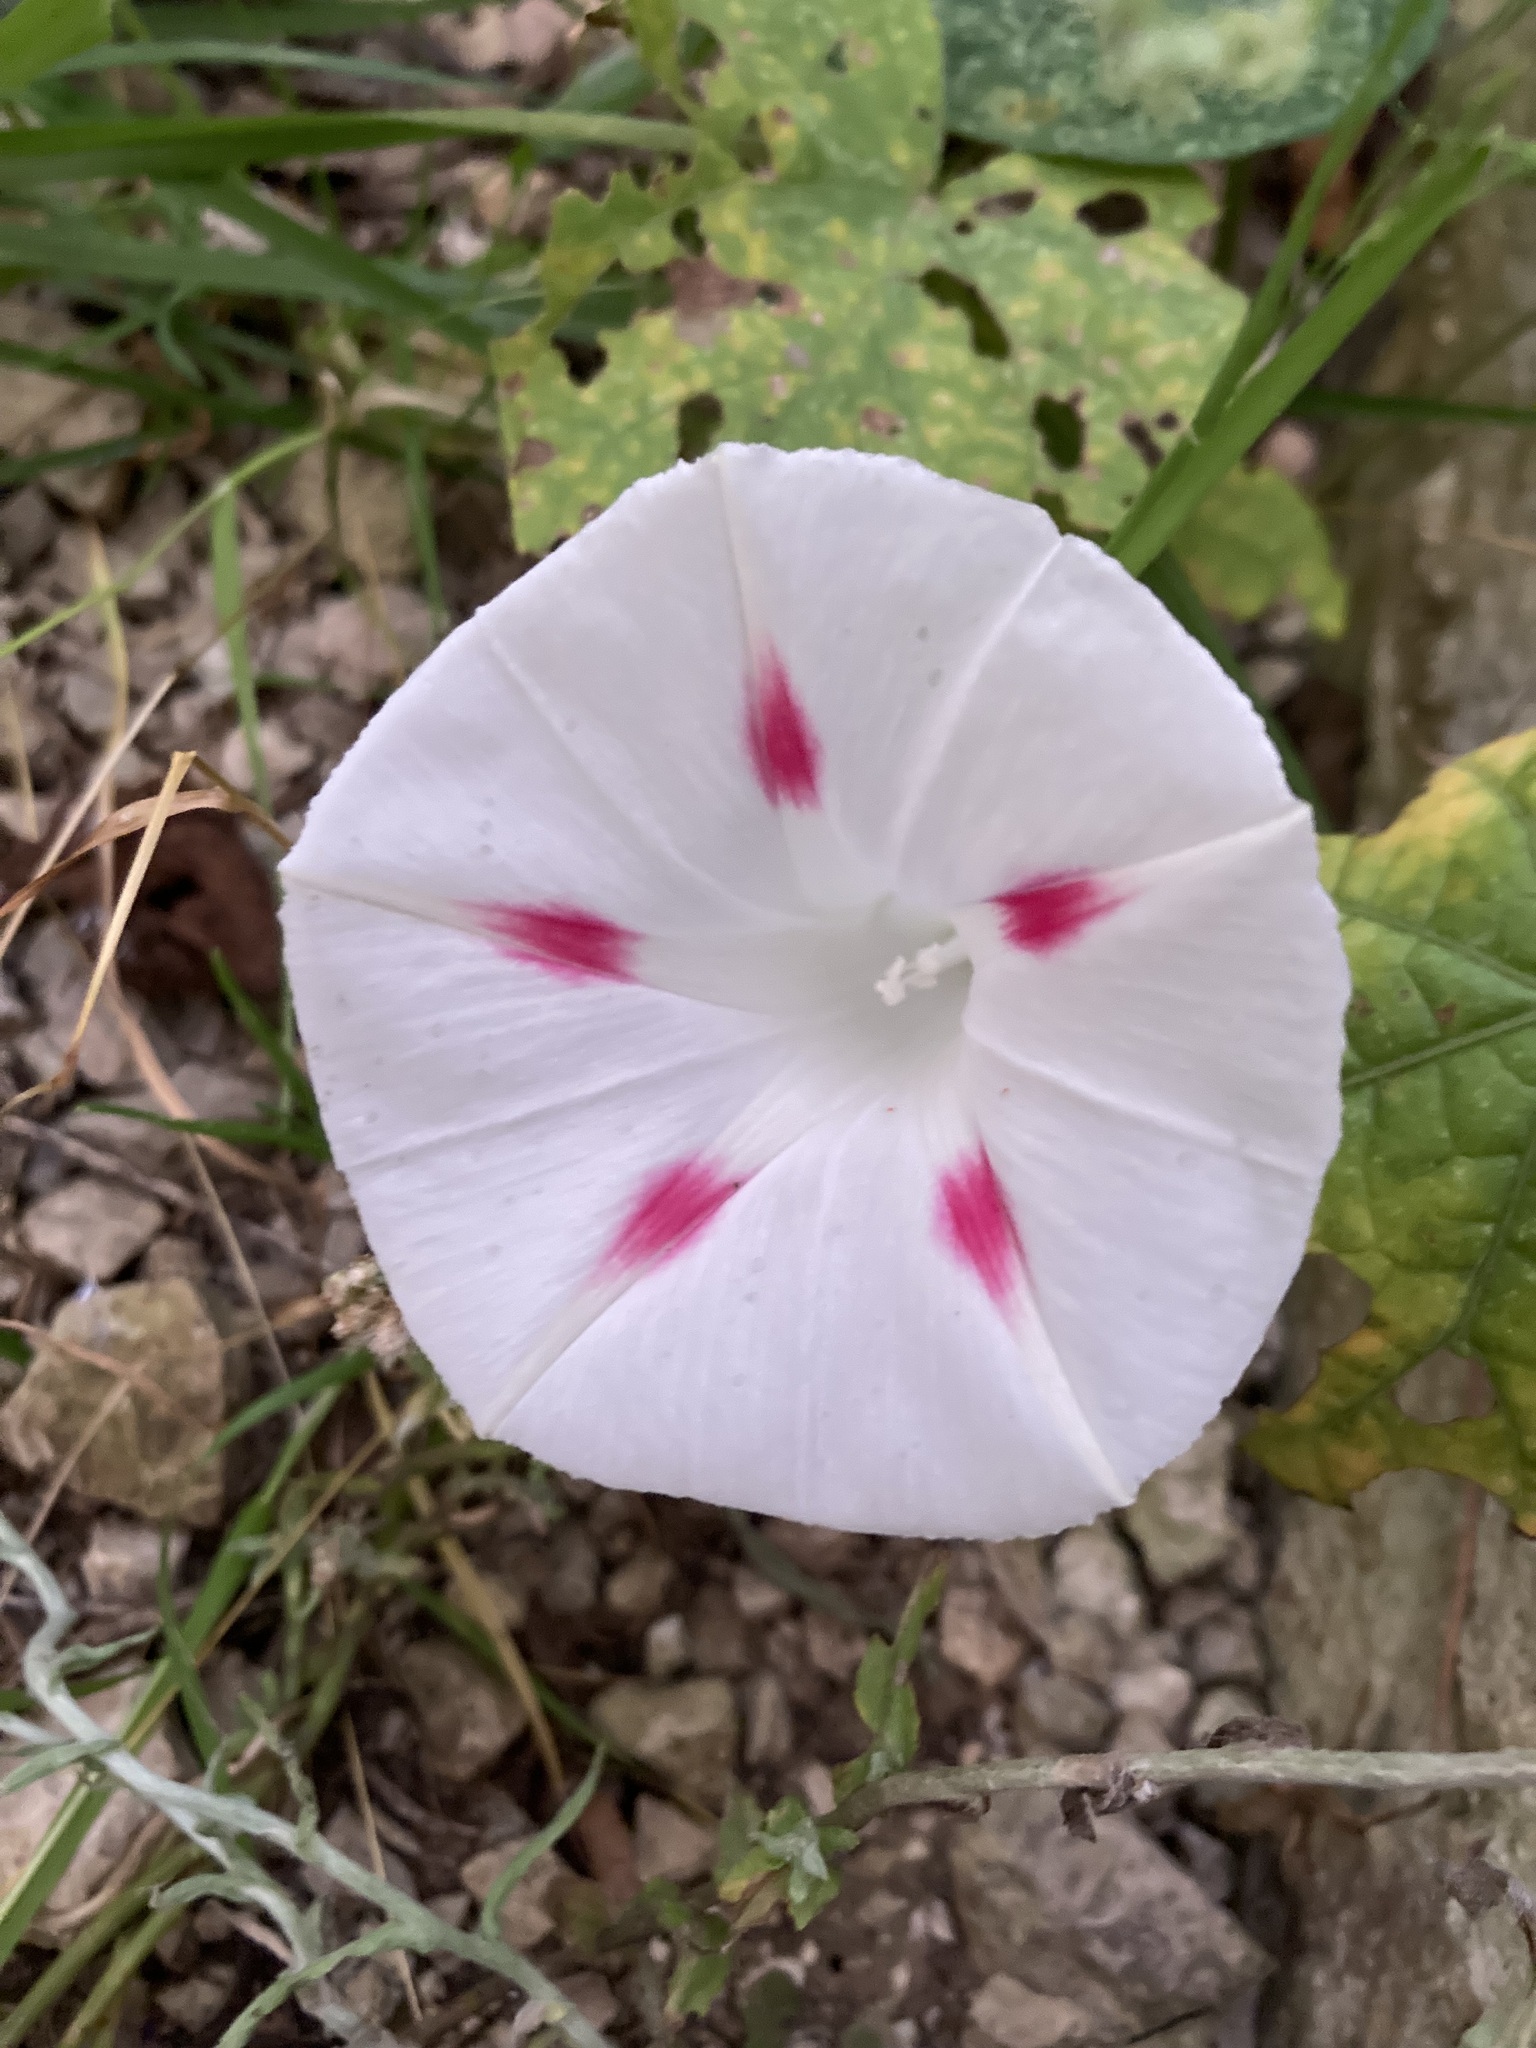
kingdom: Plantae
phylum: Tracheophyta
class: Magnoliopsida
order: Solanales
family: Convolvulaceae
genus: Ipomoea
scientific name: Ipomoea purpurea
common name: Common morning-glory
